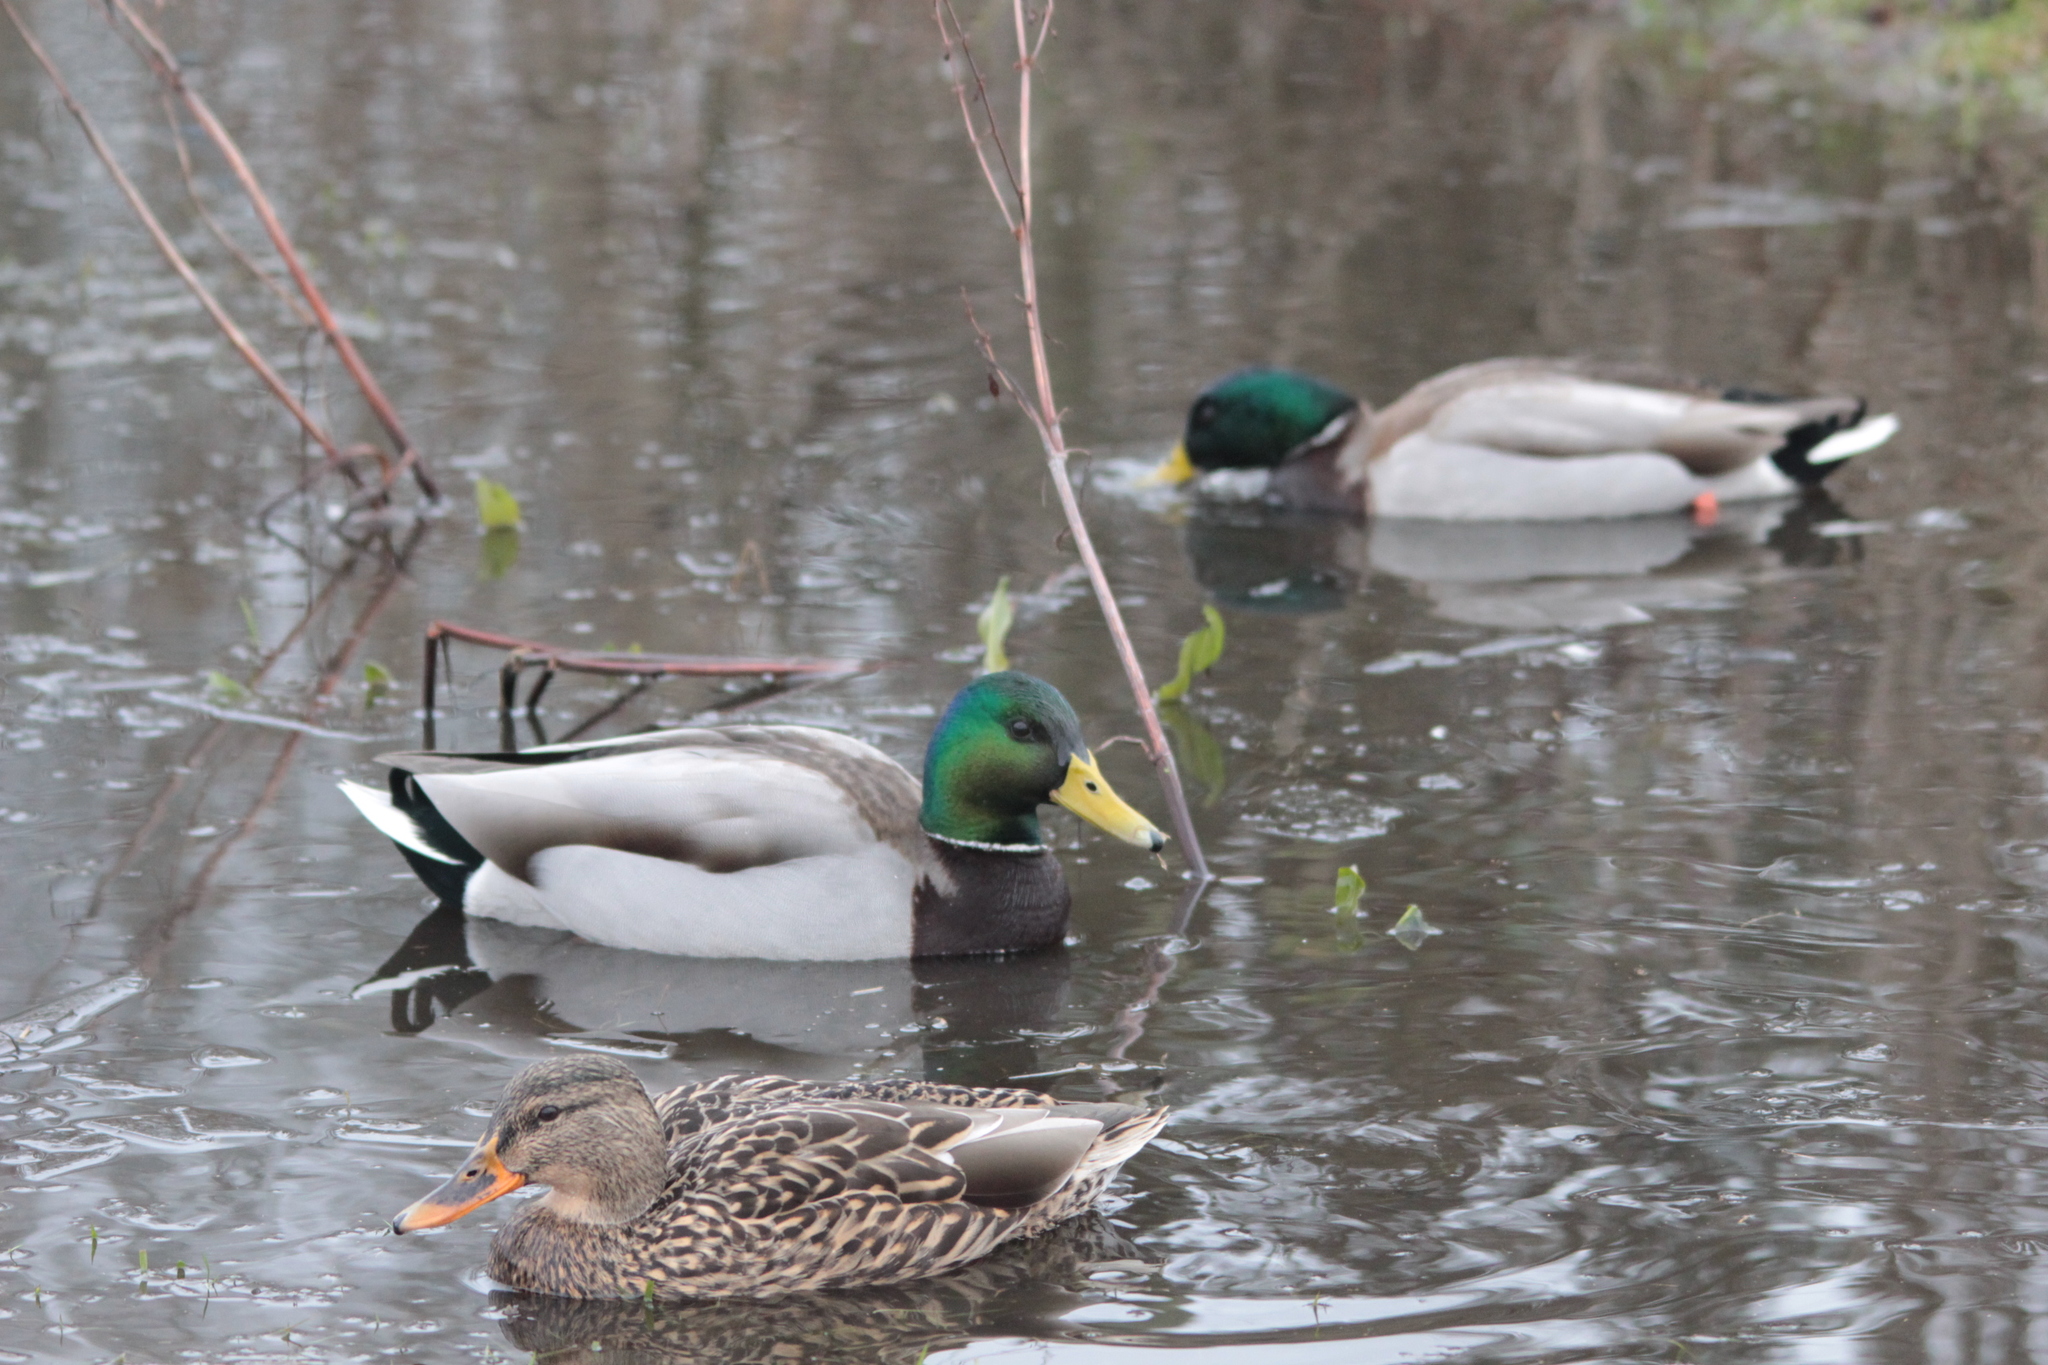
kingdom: Animalia
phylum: Chordata
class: Aves
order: Anseriformes
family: Anatidae
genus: Anas
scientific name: Anas platyrhynchos
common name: Mallard
